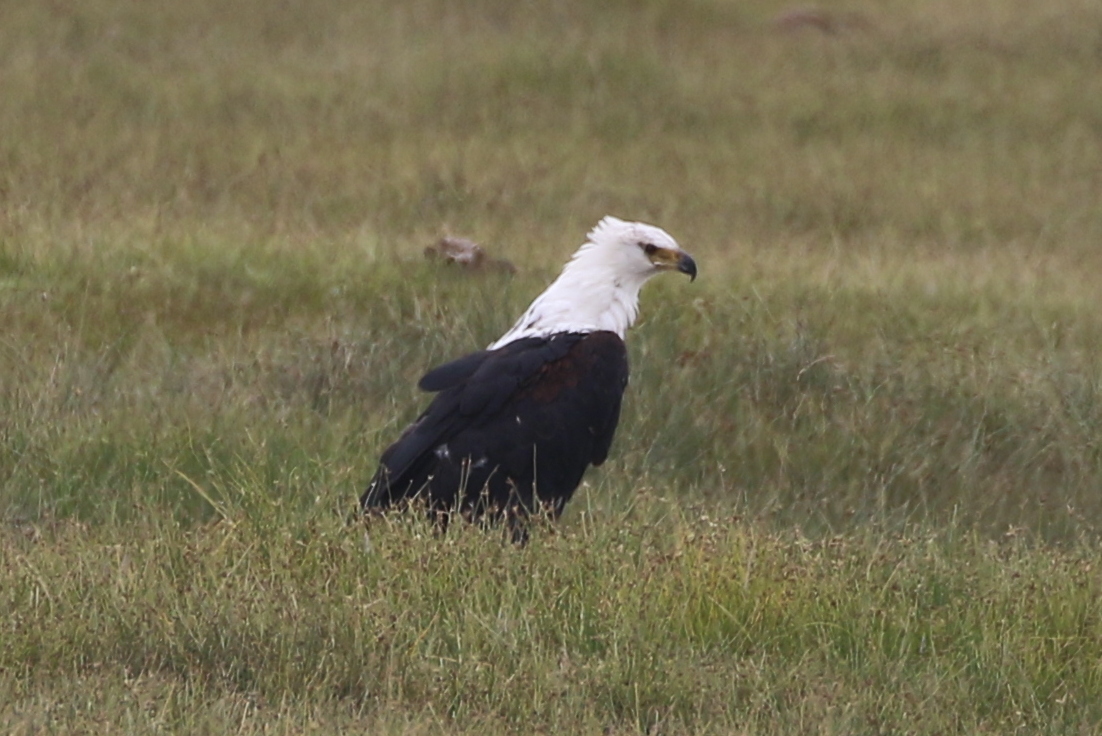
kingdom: Animalia
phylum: Chordata
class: Aves
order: Accipitriformes
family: Accipitridae
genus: Haliaeetus
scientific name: Haliaeetus vocifer
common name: African fish eagle
